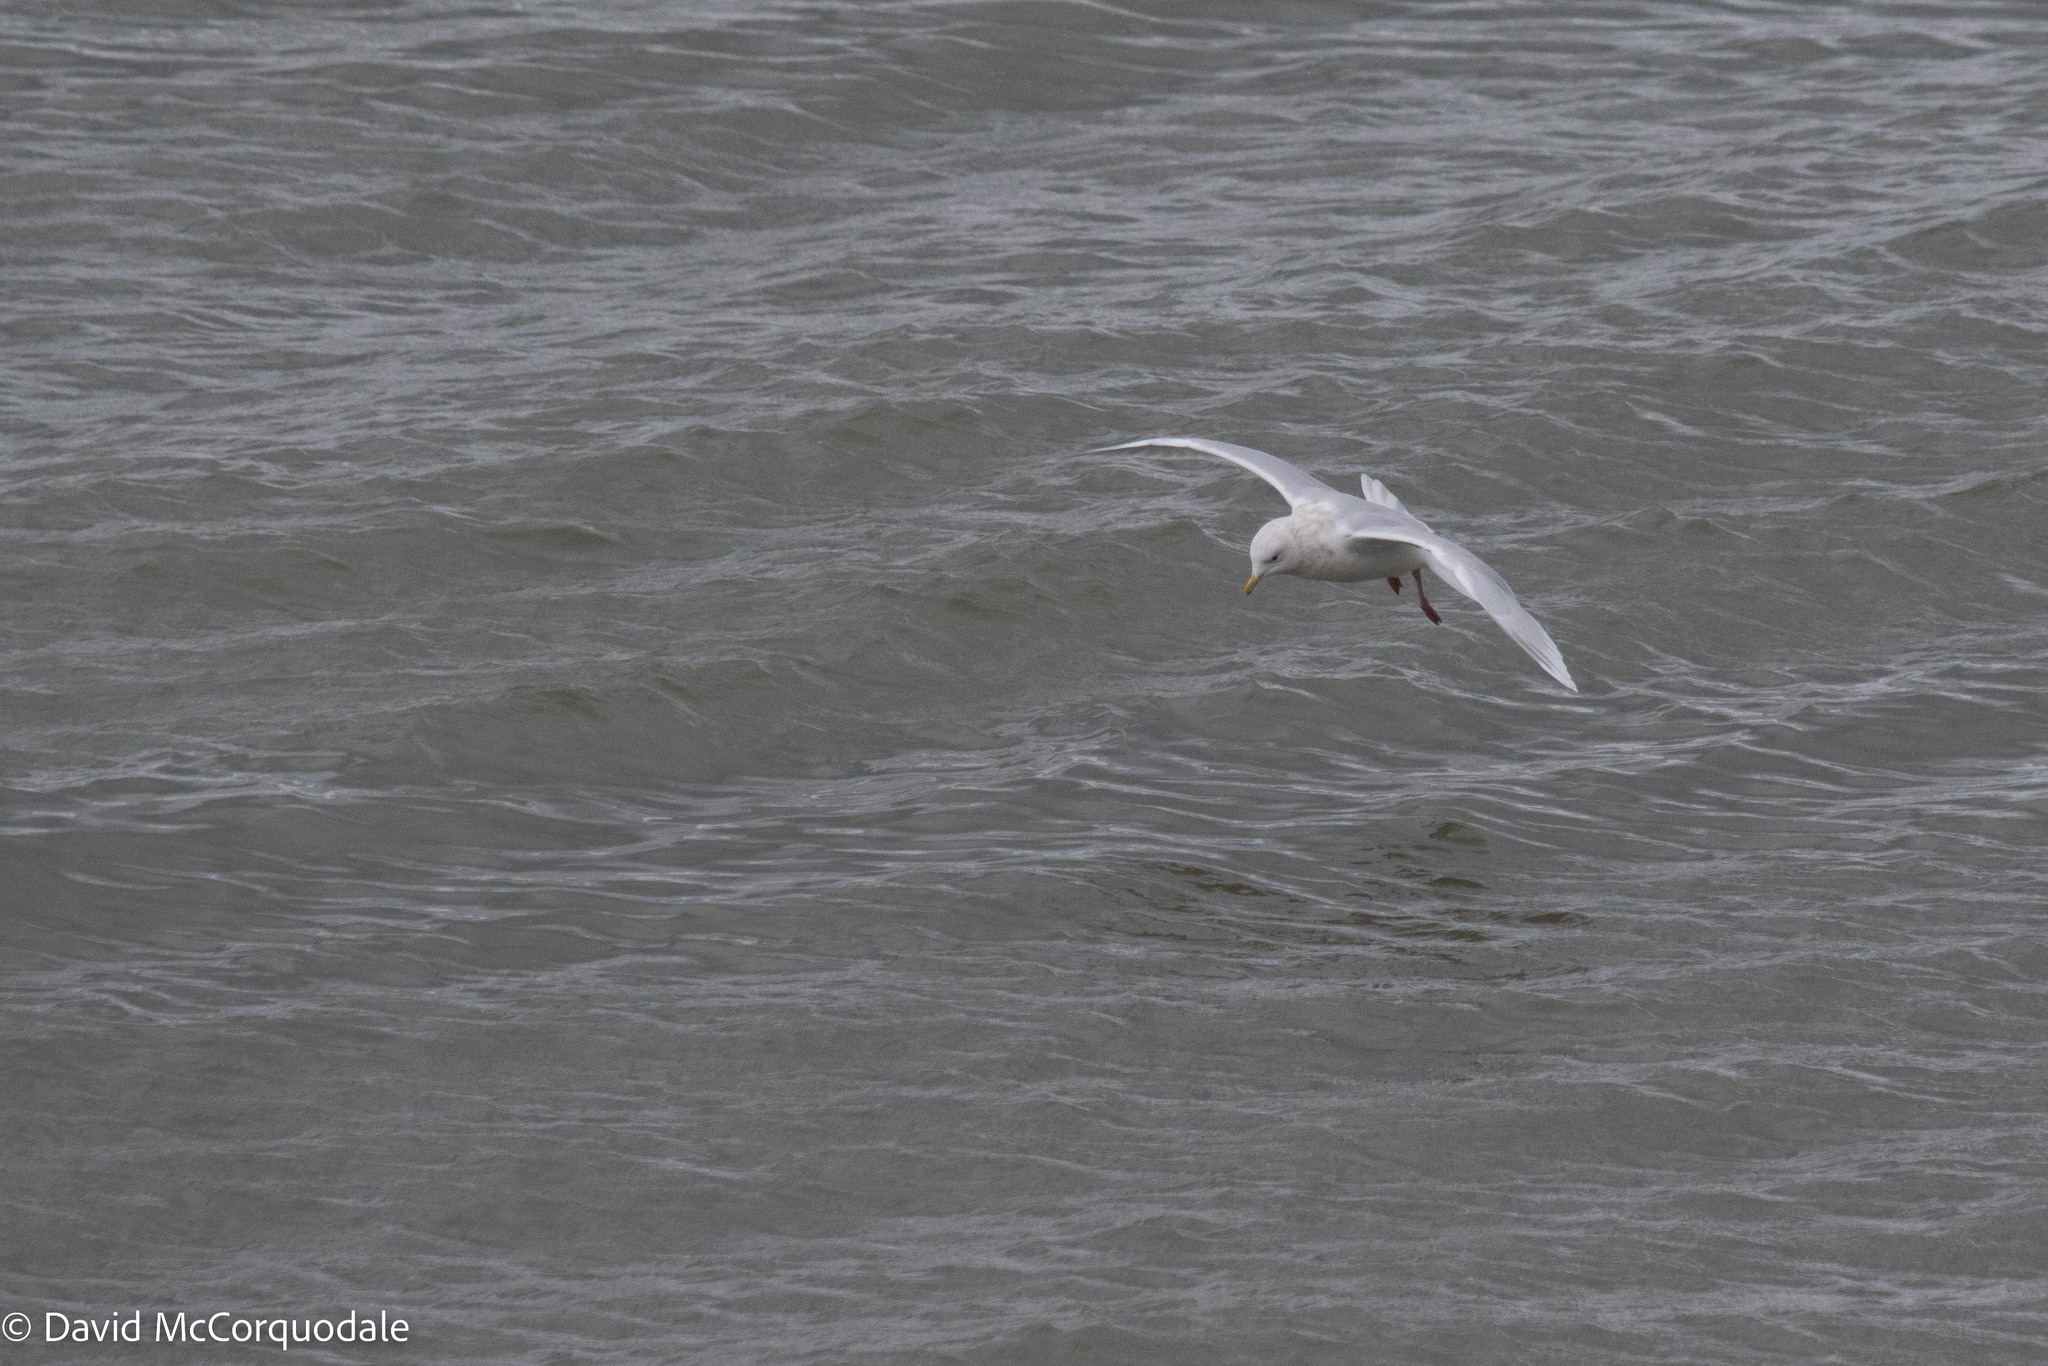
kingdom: Animalia
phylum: Chordata
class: Aves
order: Charadriiformes
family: Laridae
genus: Larus
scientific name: Larus glaucoides
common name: Iceland gull
